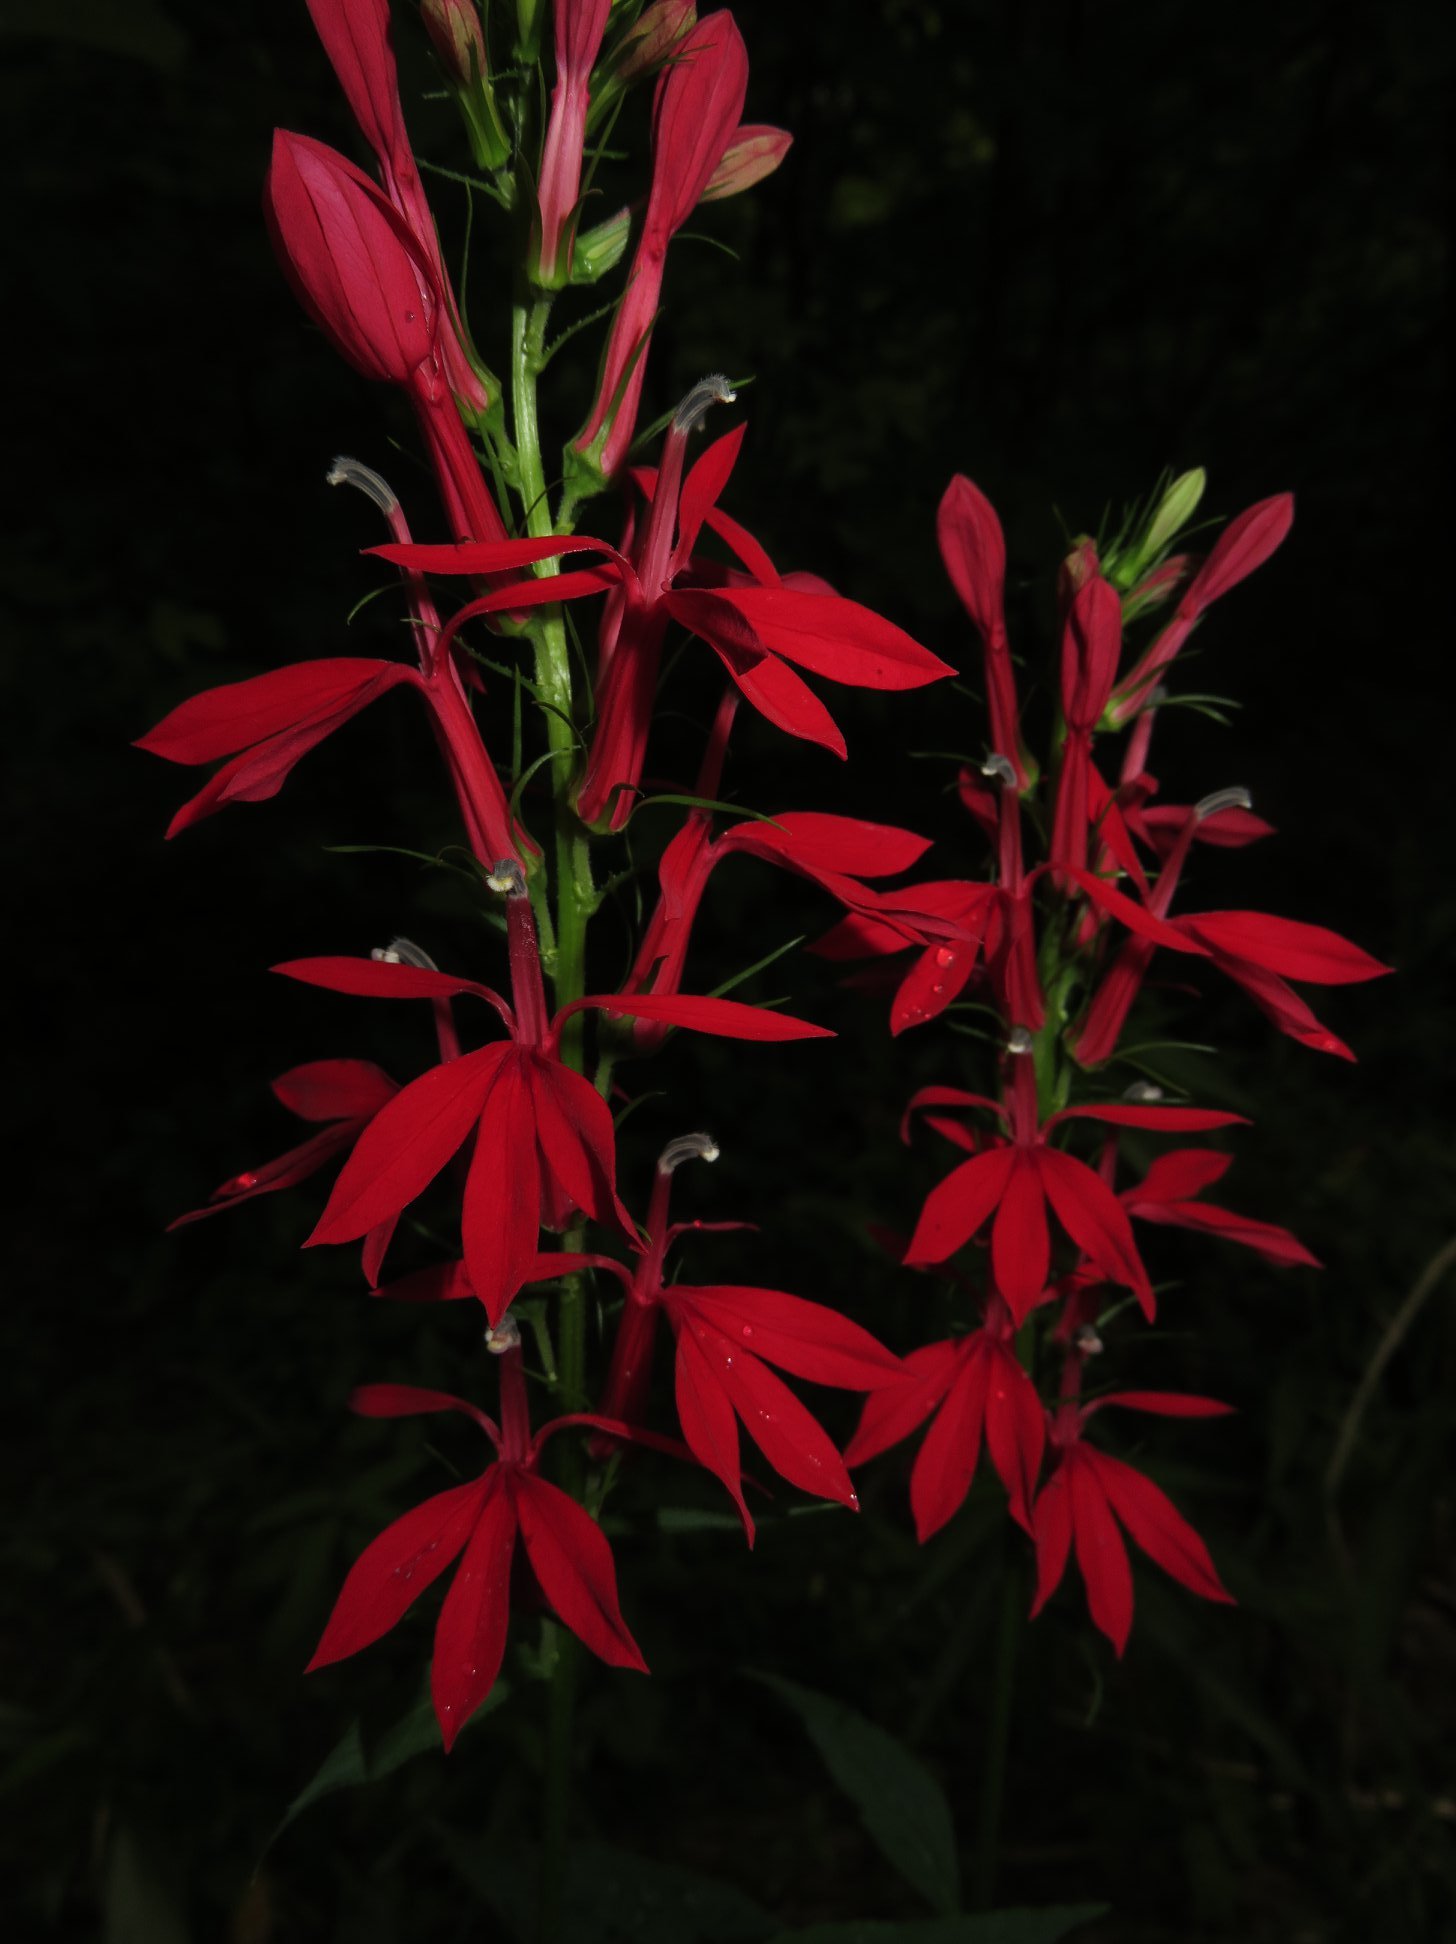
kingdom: Plantae
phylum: Tracheophyta
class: Magnoliopsida
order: Asterales
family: Campanulaceae
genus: Lobelia
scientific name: Lobelia cardinalis
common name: Cardinal flower
